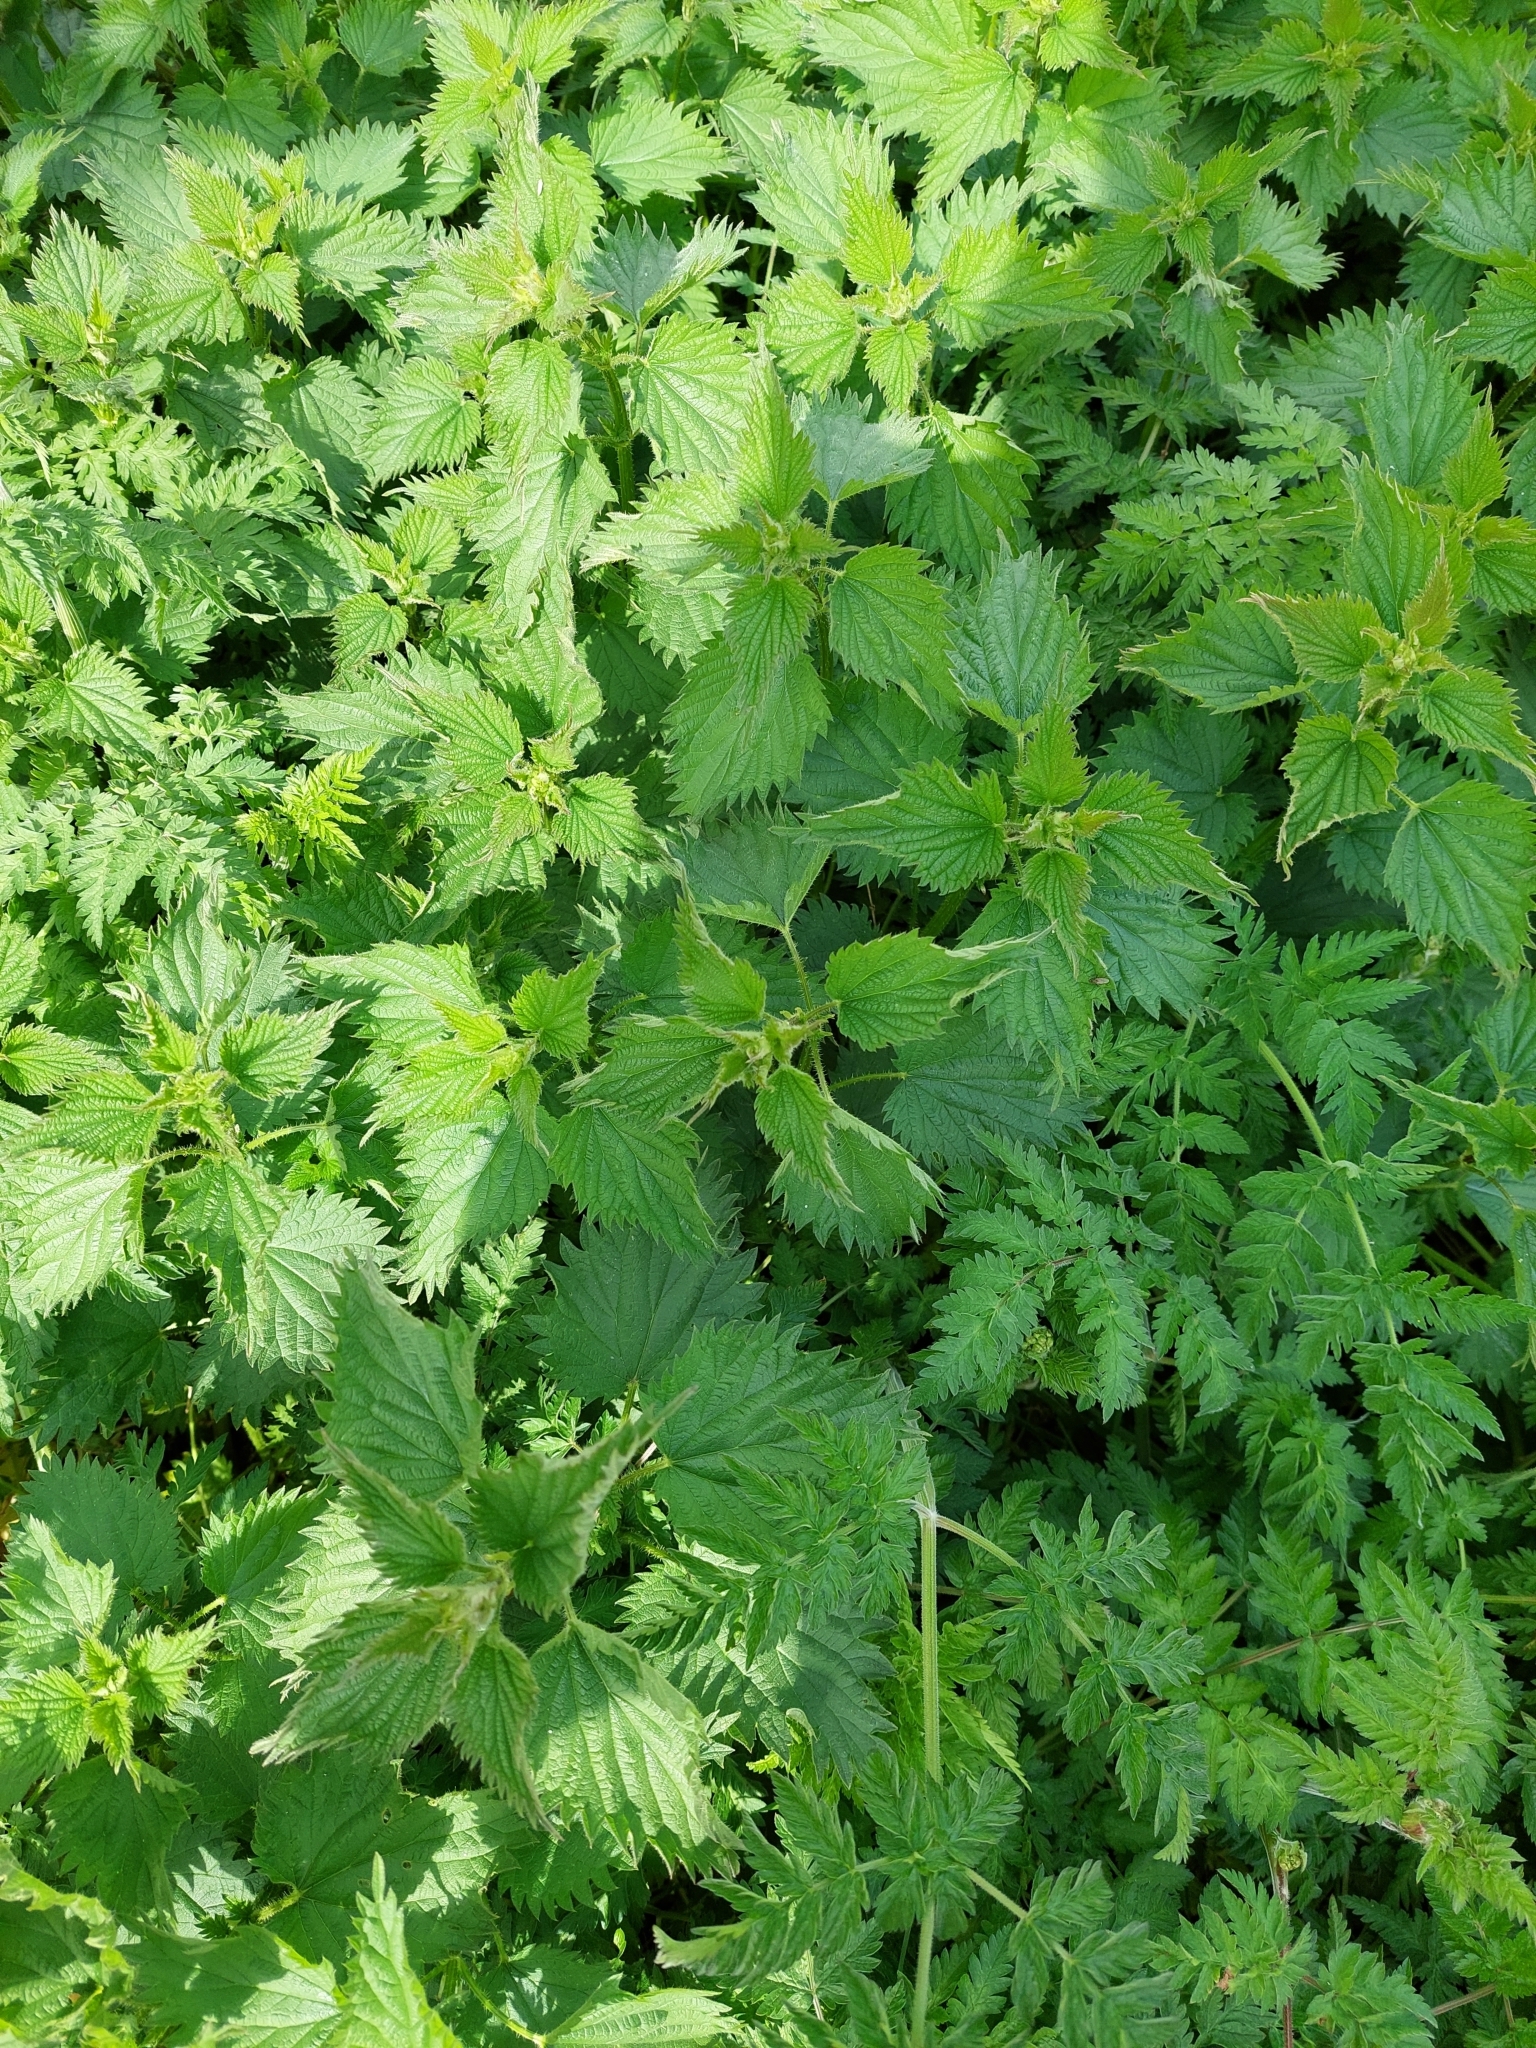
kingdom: Plantae
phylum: Tracheophyta
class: Magnoliopsida
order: Rosales
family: Urticaceae
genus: Urtica
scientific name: Urtica dioica
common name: Common nettle
